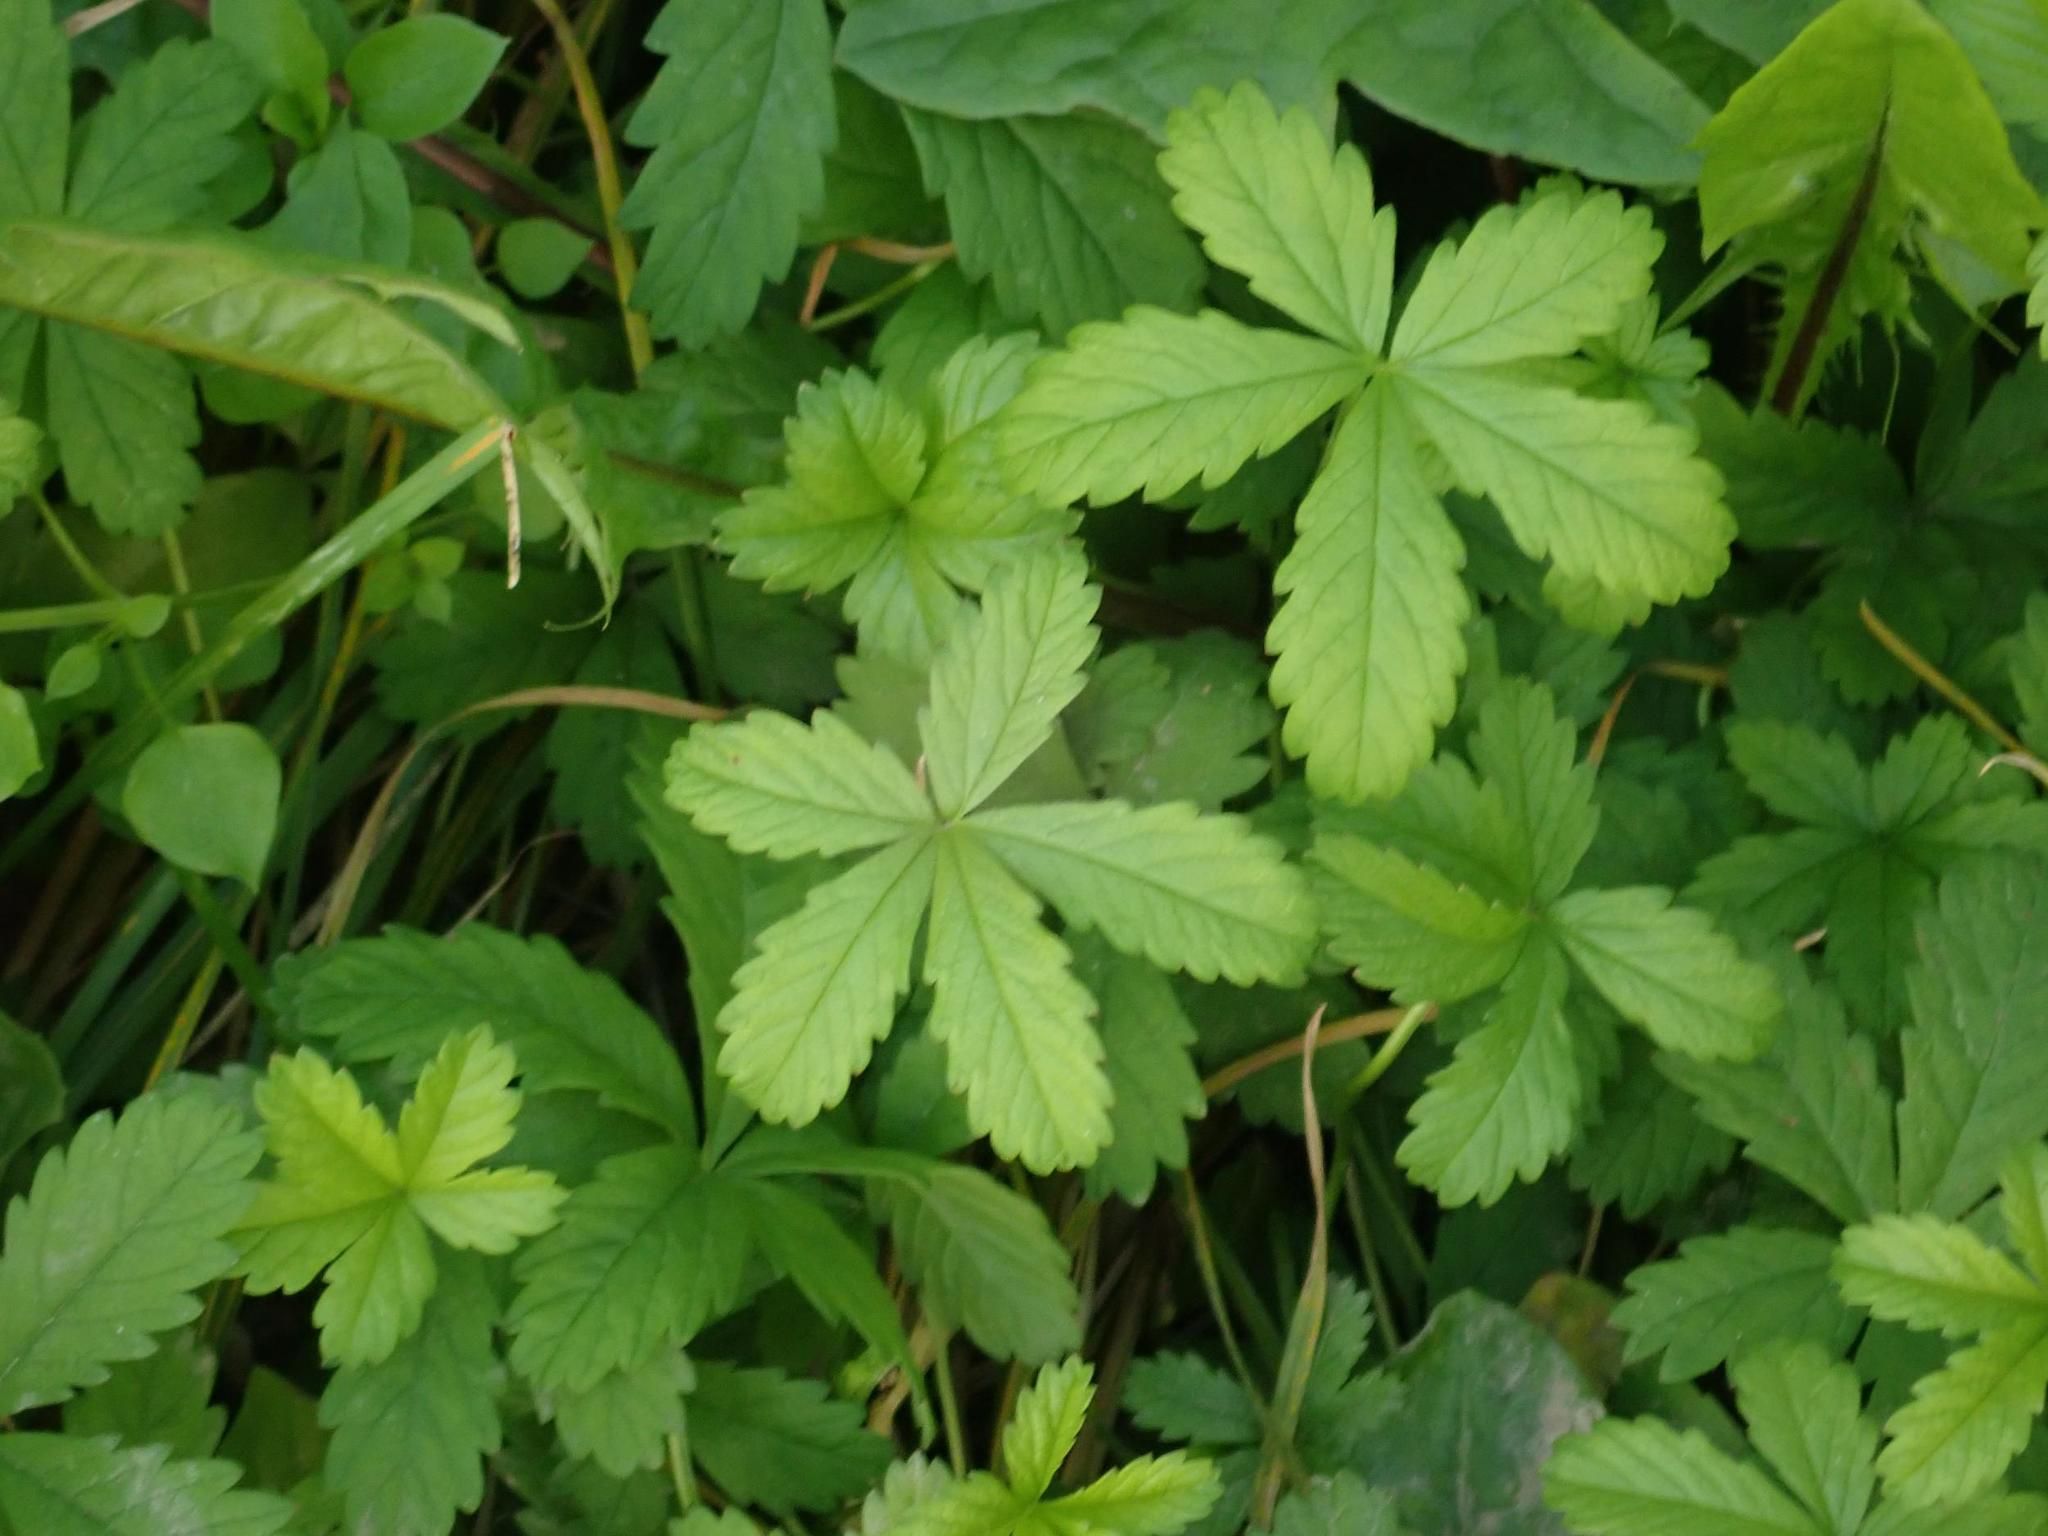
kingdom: Plantae
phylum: Tracheophyta
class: Magnoliopsida
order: Rosales
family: Rosaceae
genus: Potentilla
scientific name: Potentilla reptans
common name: Creeping cinquefoil
